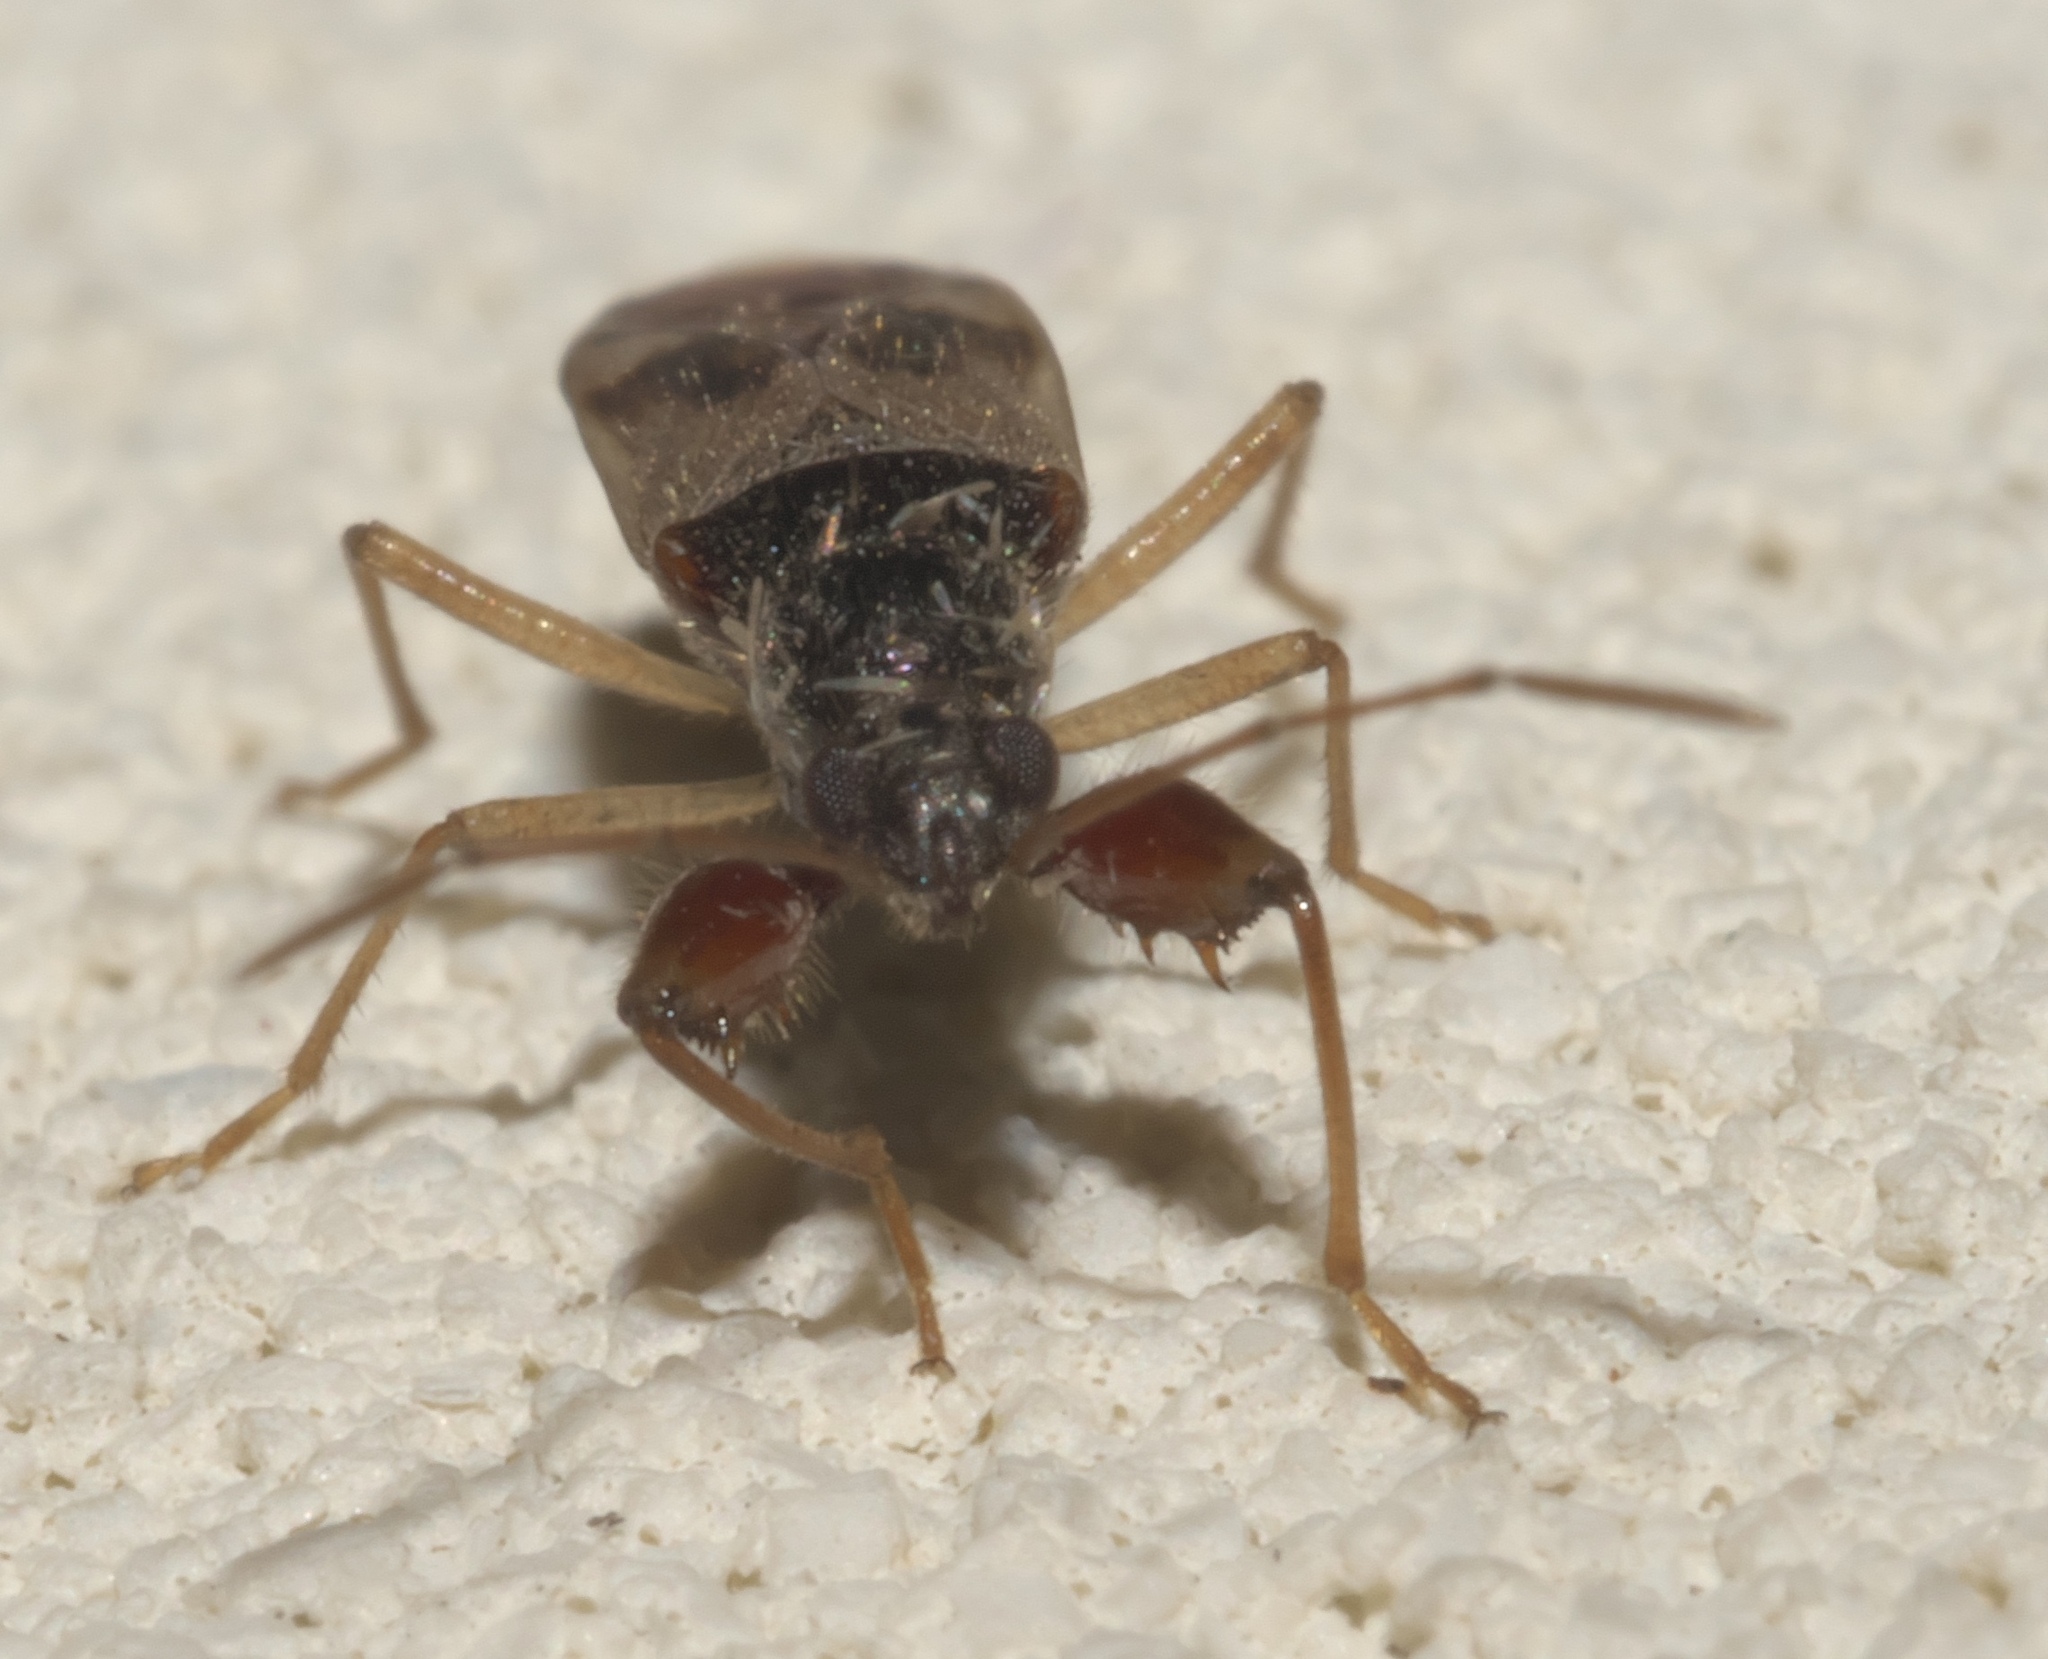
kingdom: Animalia
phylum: Arthropoda
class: Insecta
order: Hemiptera
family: Rhyparochromidae
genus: Pseudopamera
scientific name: Pseudopamera nitidula
